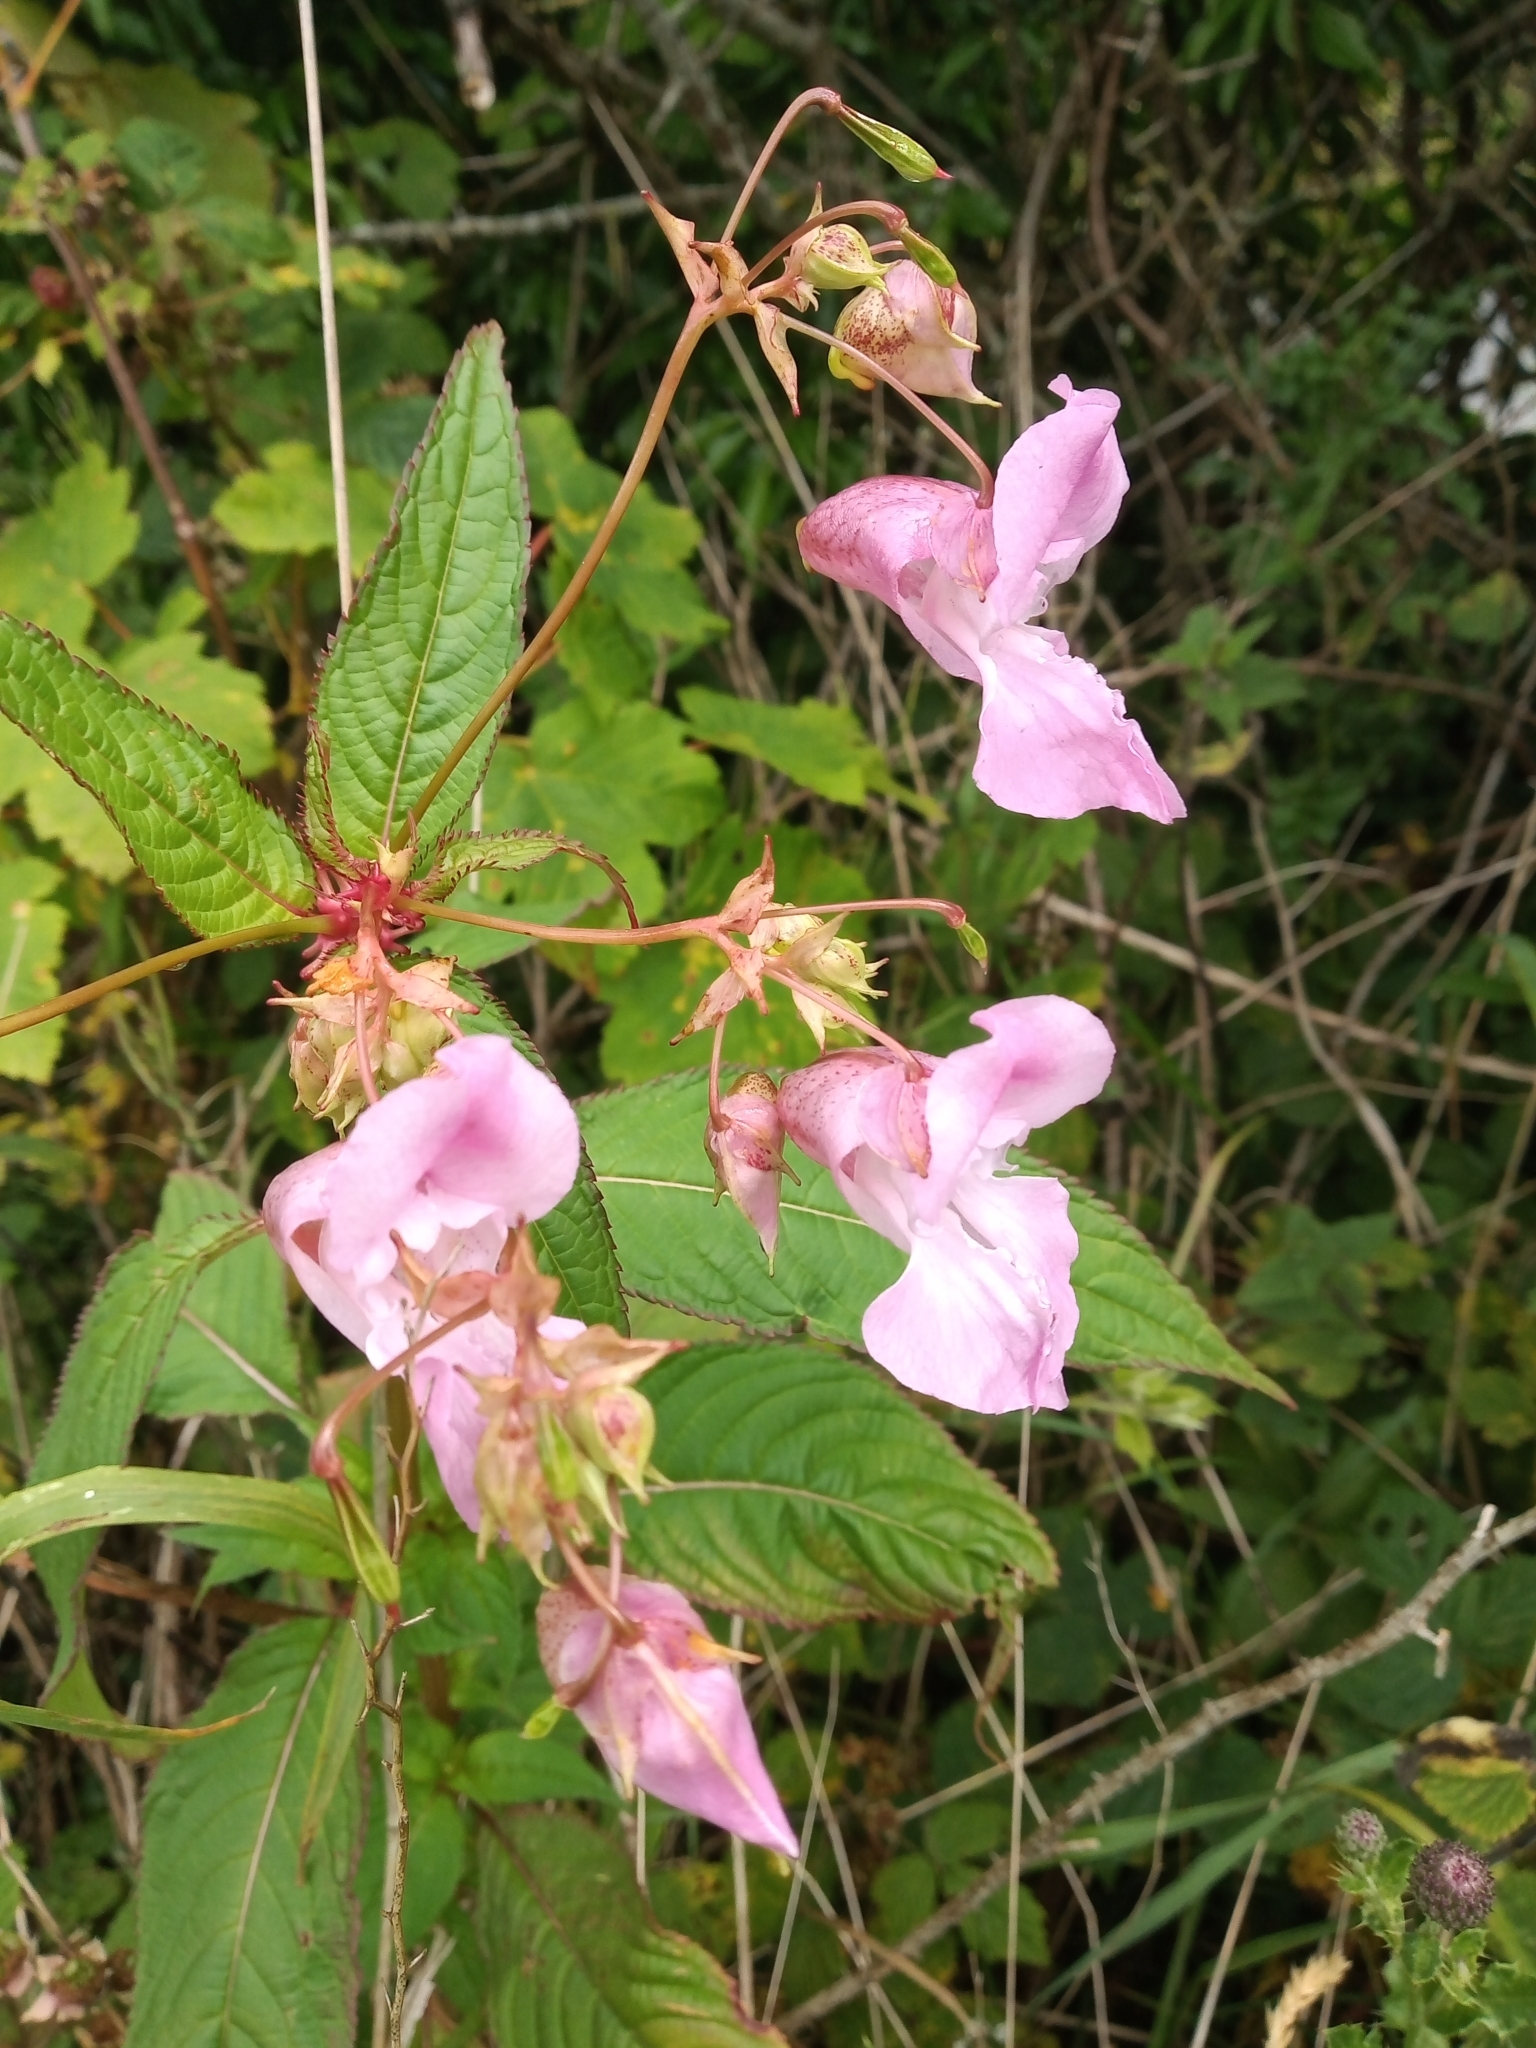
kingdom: Plantae
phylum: Tracheophyta
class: Magnoliopsida
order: Ericales
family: Balsaminaceae
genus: Impatiens
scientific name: Impatiens glandulifera
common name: Himalayan balsam
